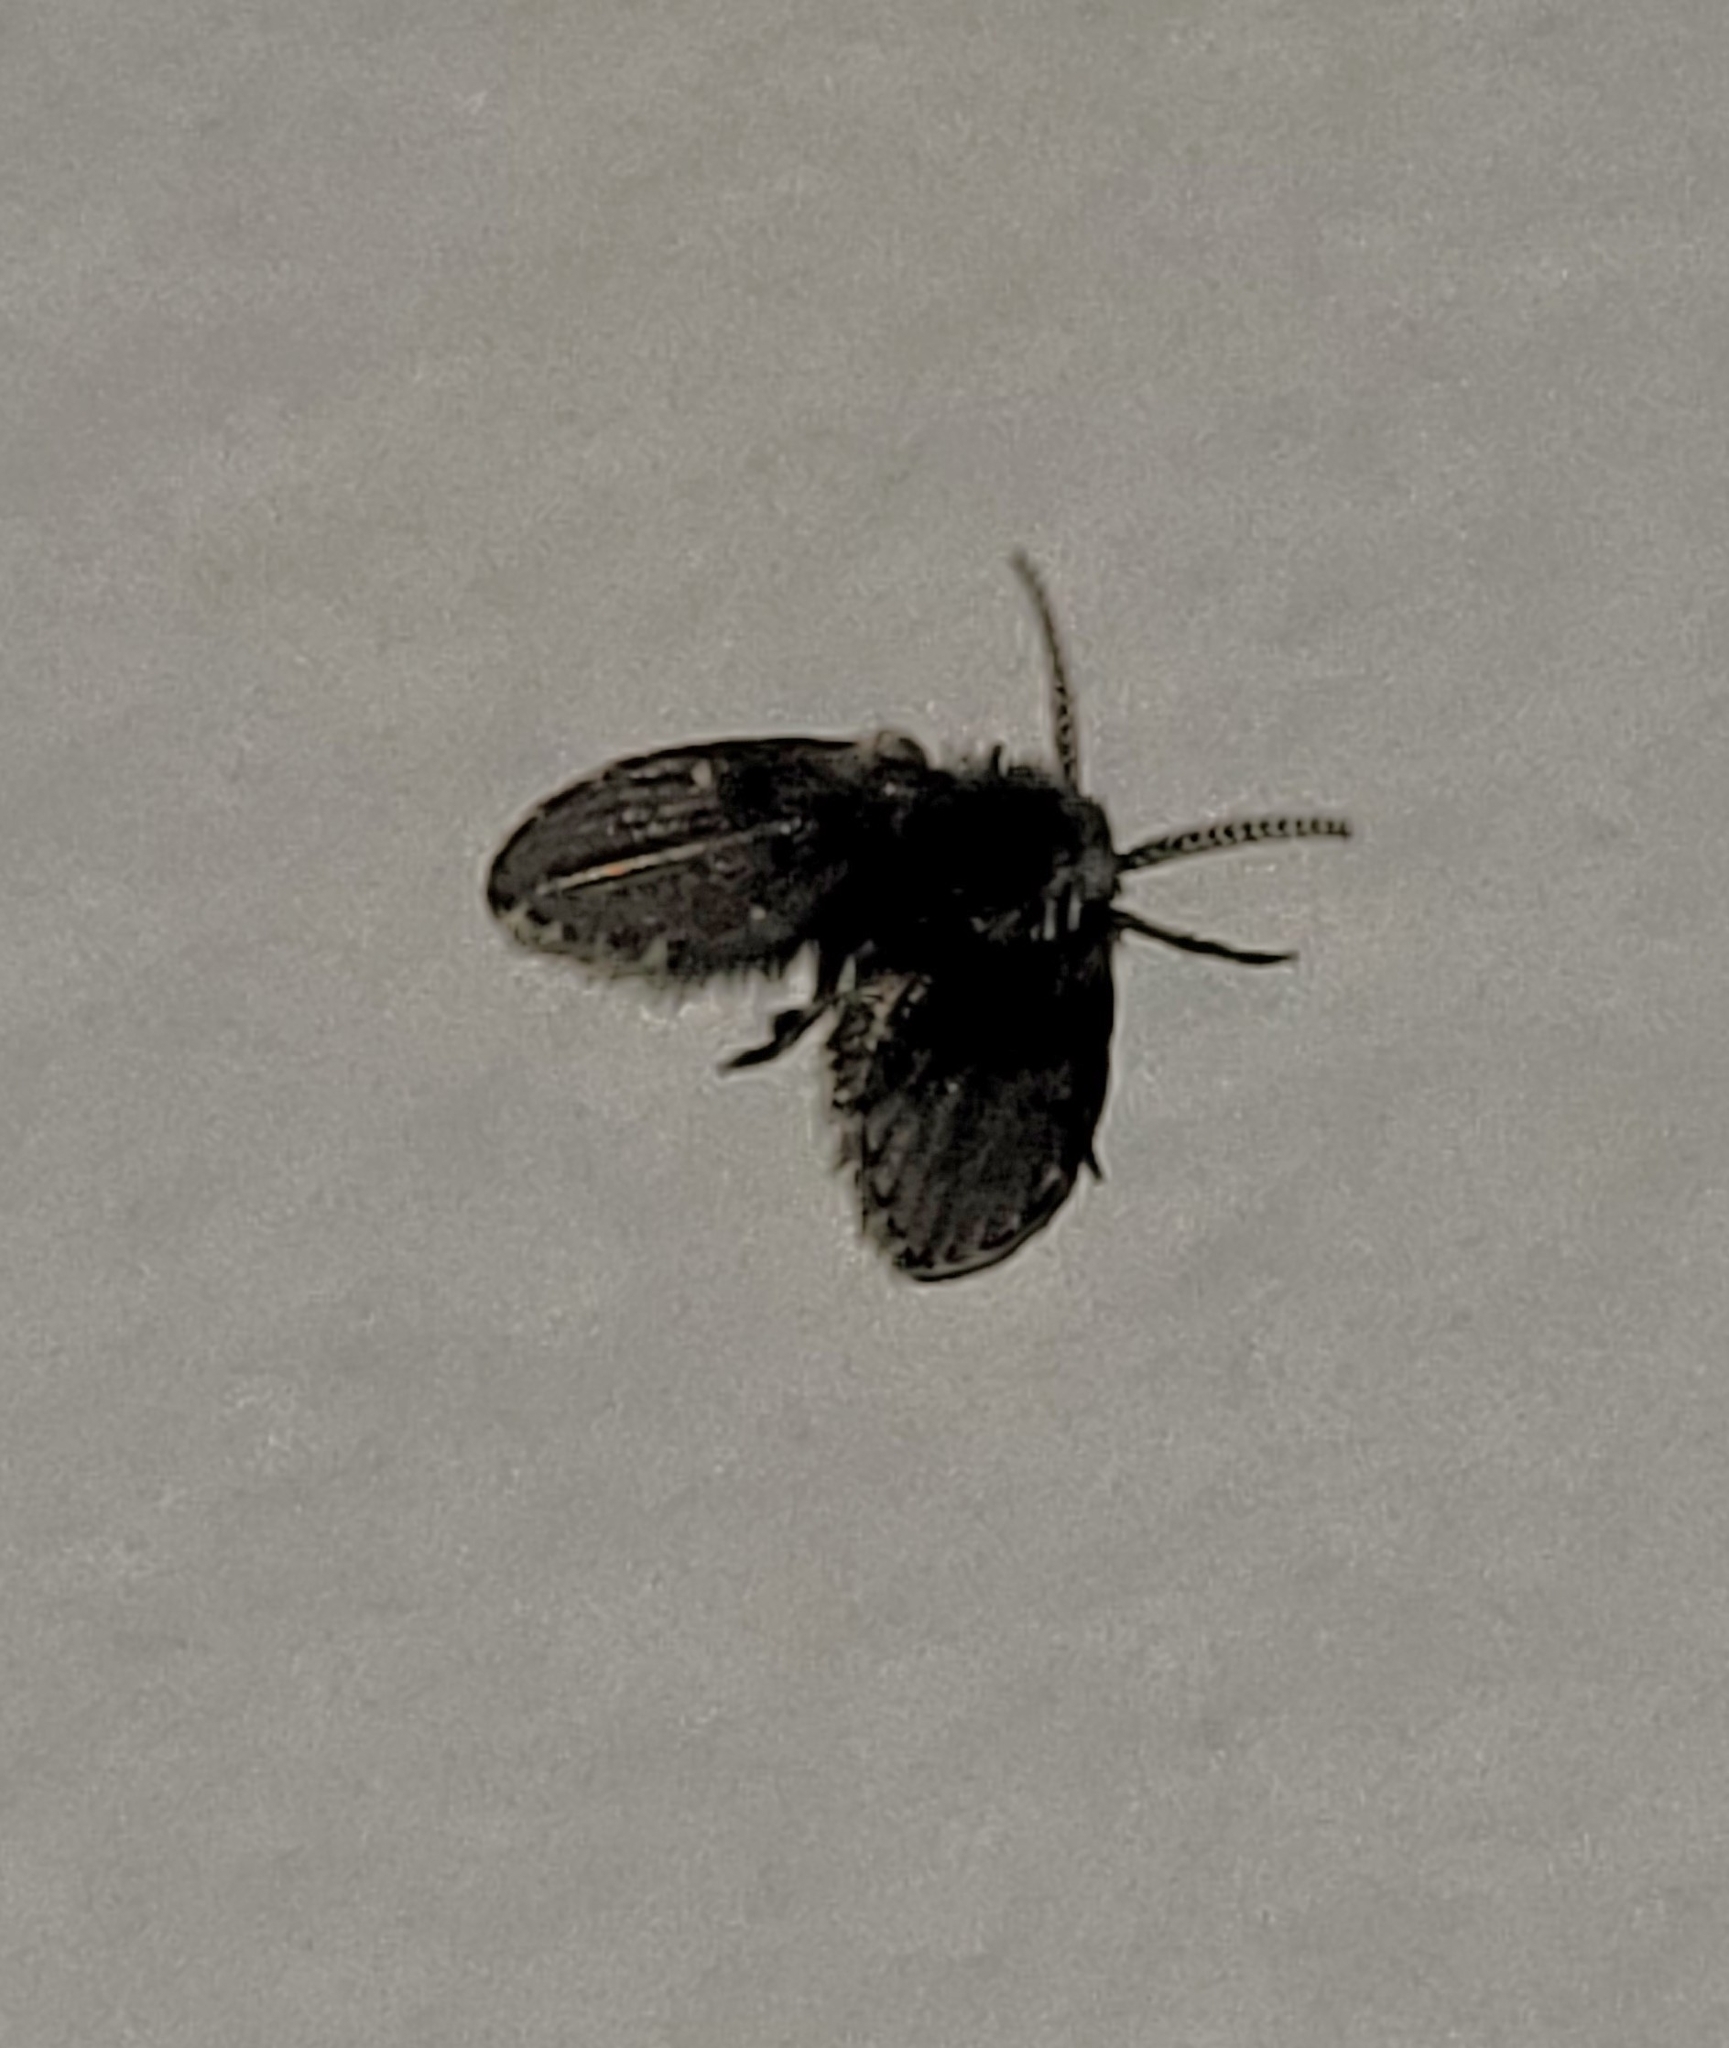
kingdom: Animalia
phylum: Arthropoda
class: Insecta
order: Diptera
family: Psychodidae
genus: Clogmia
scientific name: Clogmia albipunctatus
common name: White-spotted moth fly
